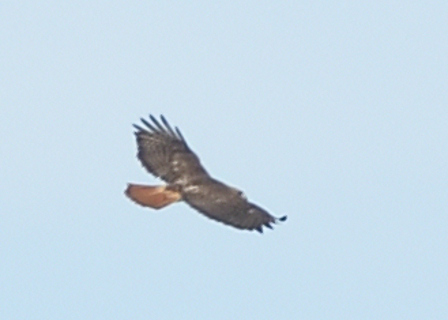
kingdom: Animalia
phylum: Chordata
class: Aves
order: Accipitriformes
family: Accipitridae
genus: Buteo
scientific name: Buteo jamaicensis
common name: Red-tailed hawk
